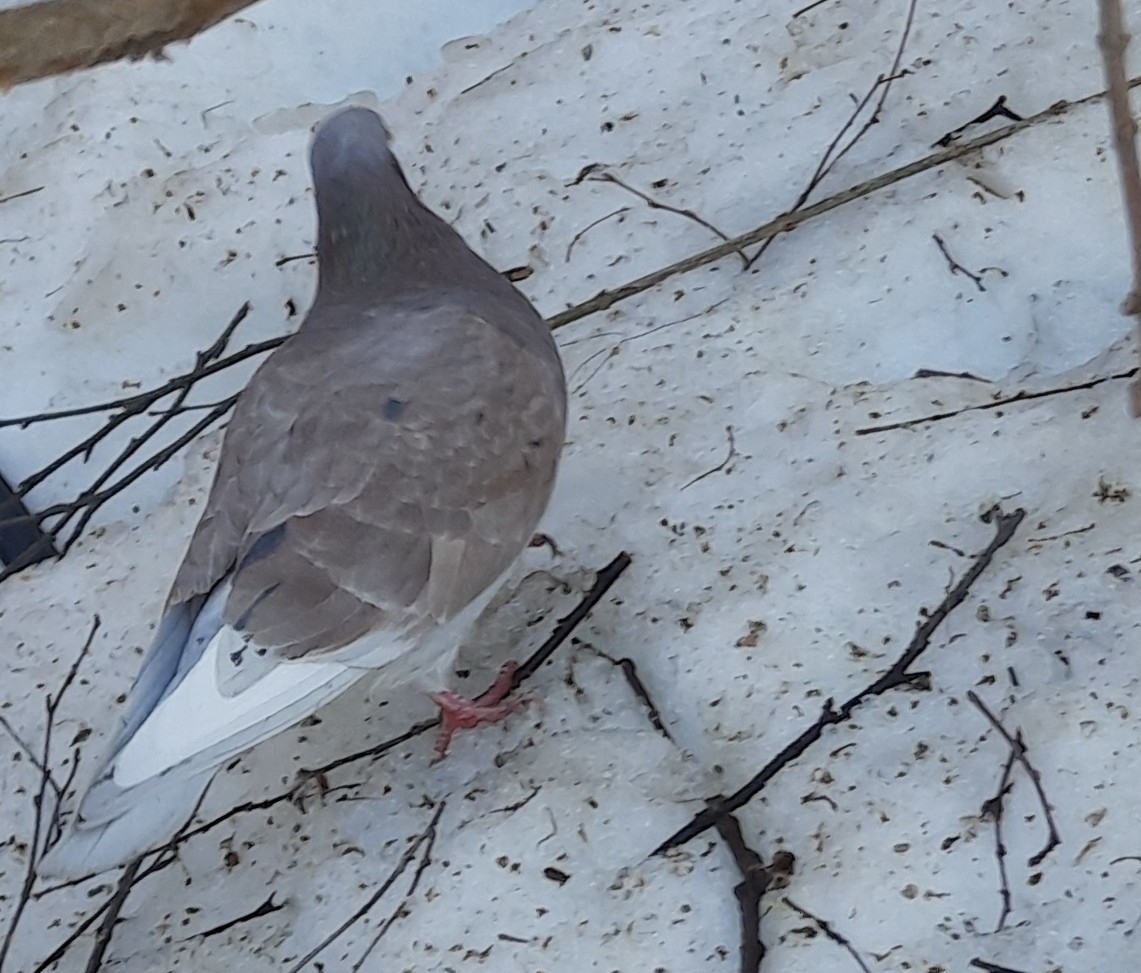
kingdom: Animalia
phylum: Chordata
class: Aves
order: Columbiformes
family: Columbidae
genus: Columba
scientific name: Columba livia
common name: Rock pigeon
